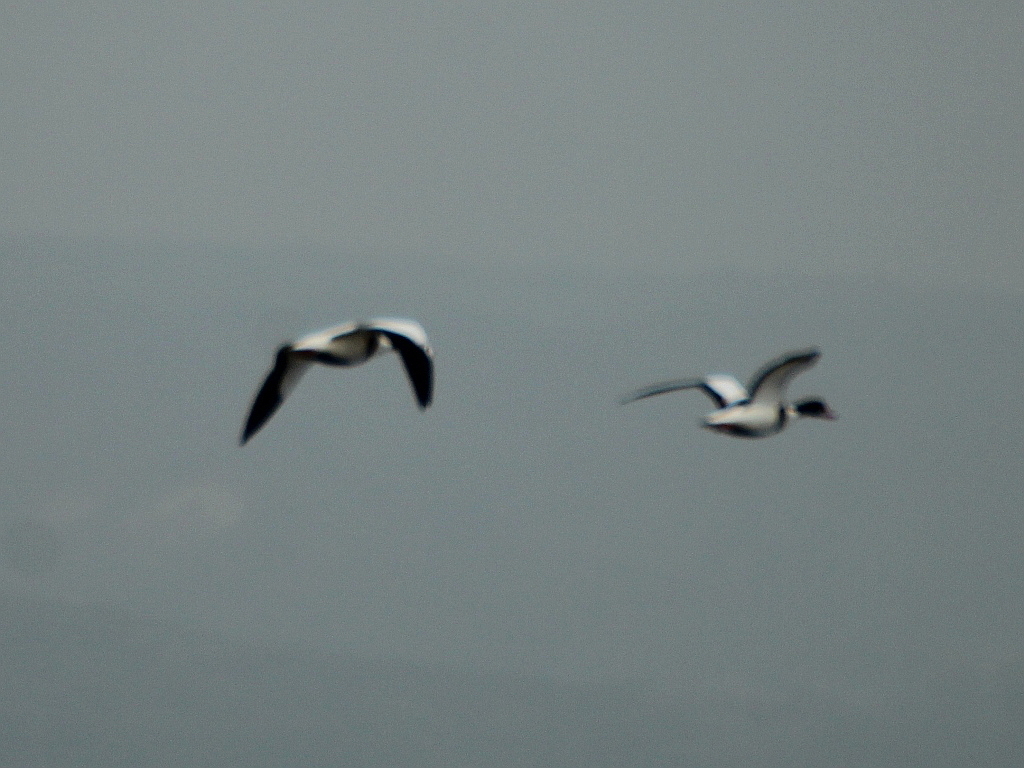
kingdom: Animalia
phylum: Chordata
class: Aves
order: Anseriformes
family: Anatidae
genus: Tadorna
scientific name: Tadorna tadorna
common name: Common shelduck
